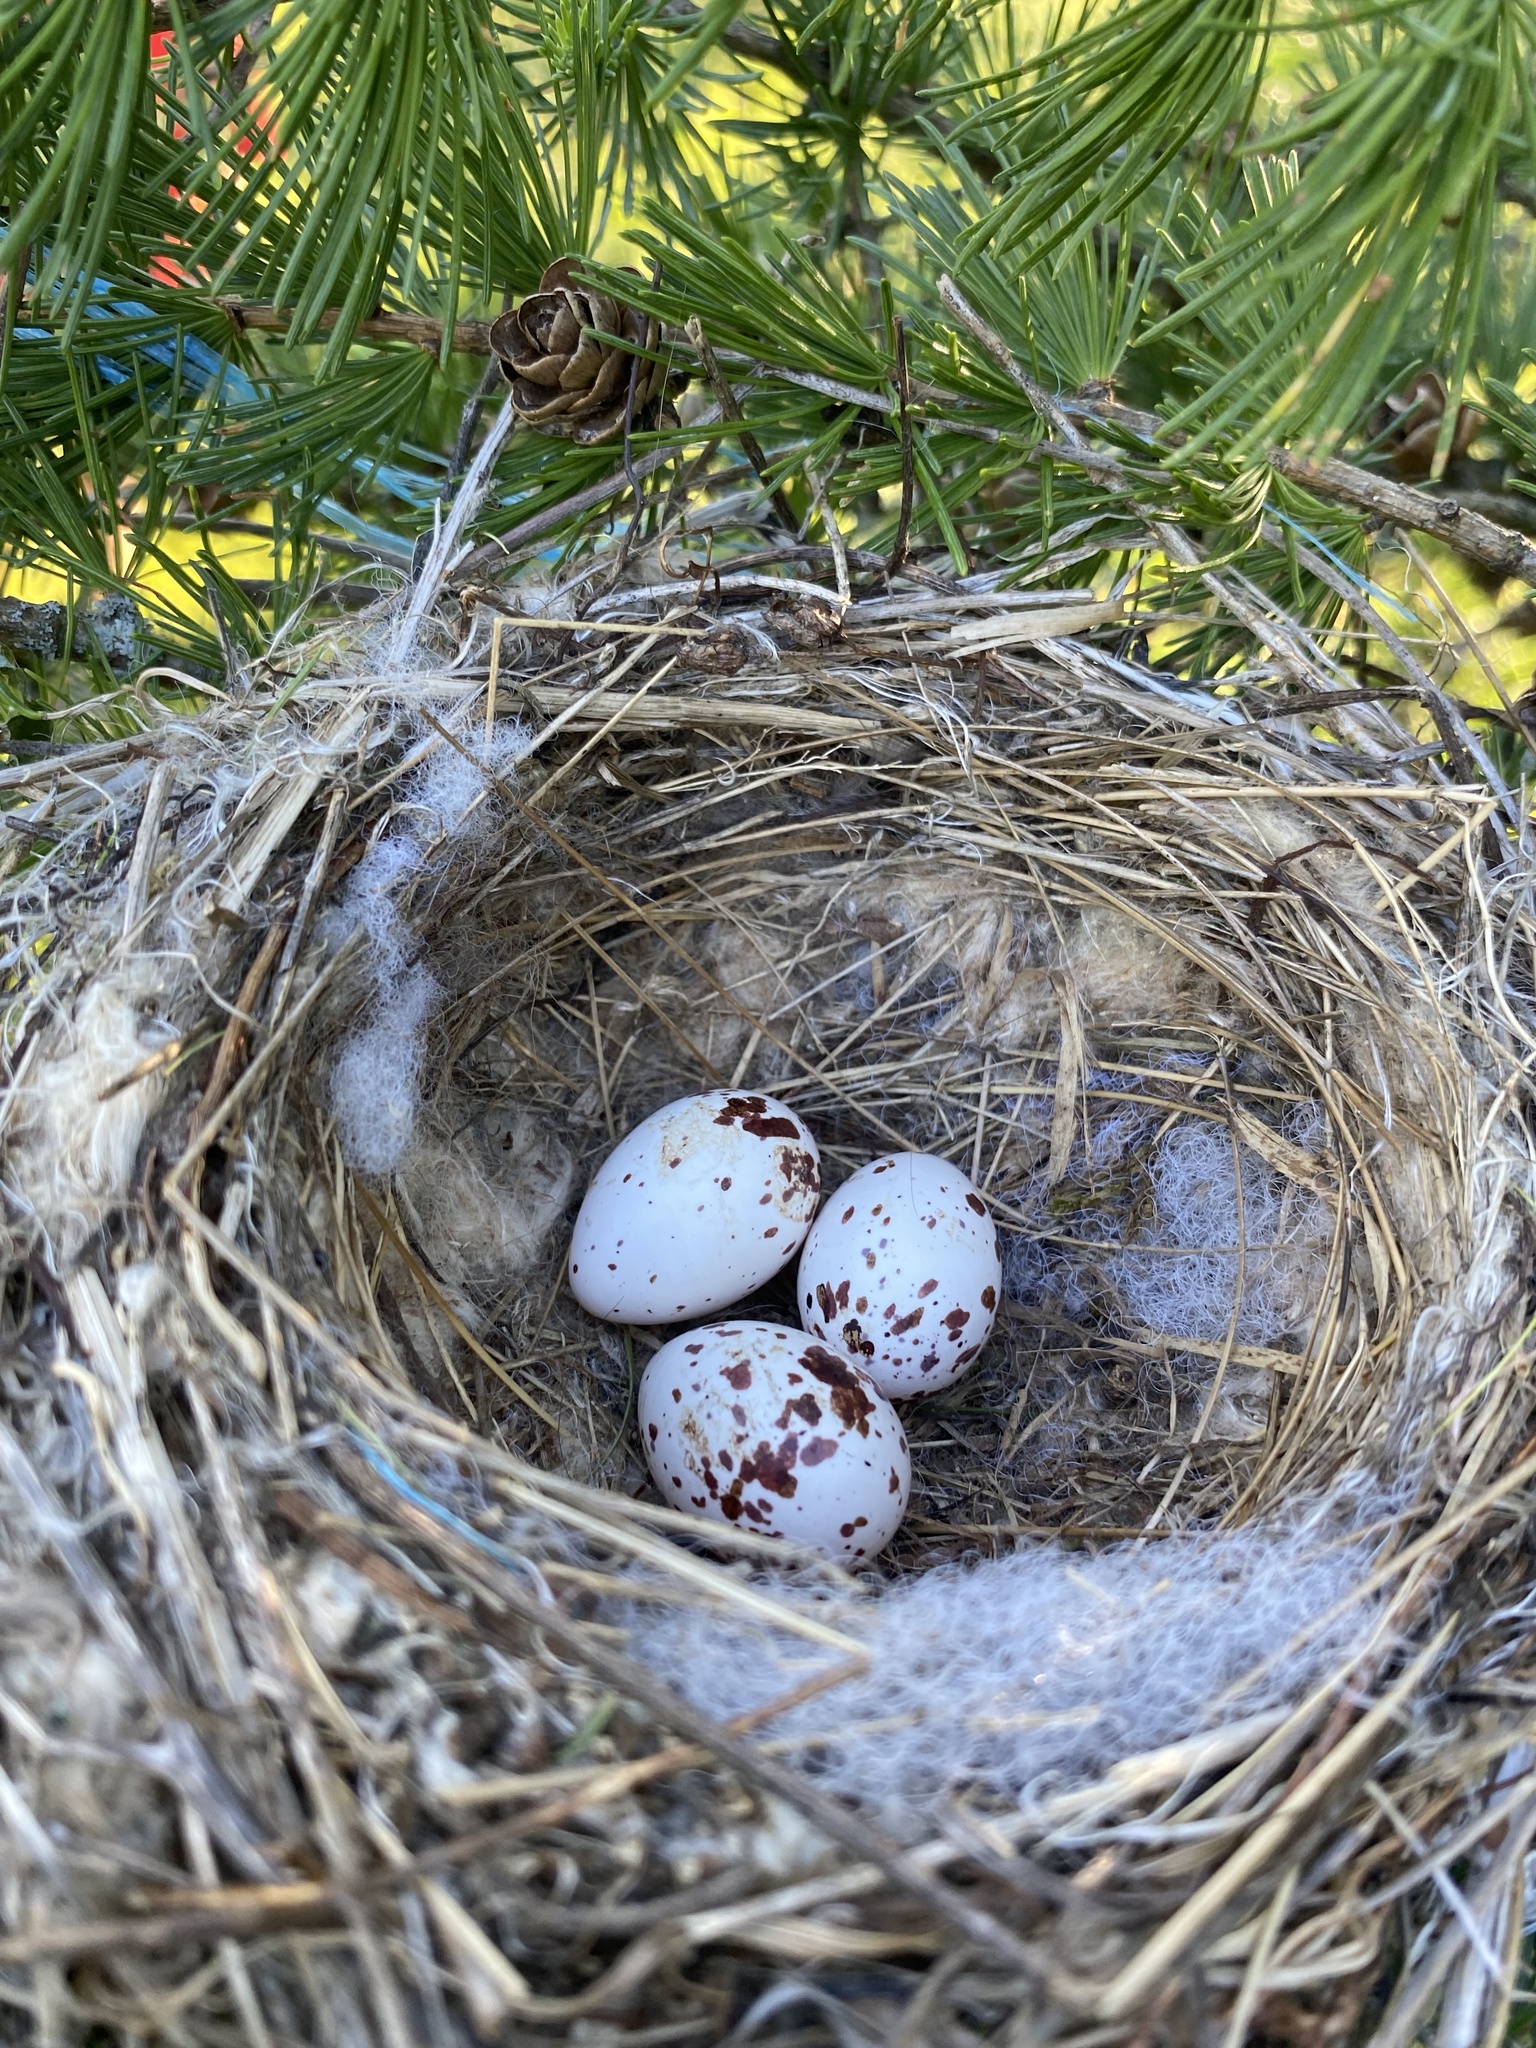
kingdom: Animalia
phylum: Chordata
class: Aves
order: Passeriformes
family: Tyrannidae
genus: Tyrannus
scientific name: Tyrannus tyrannus
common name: Eastern kingbird
